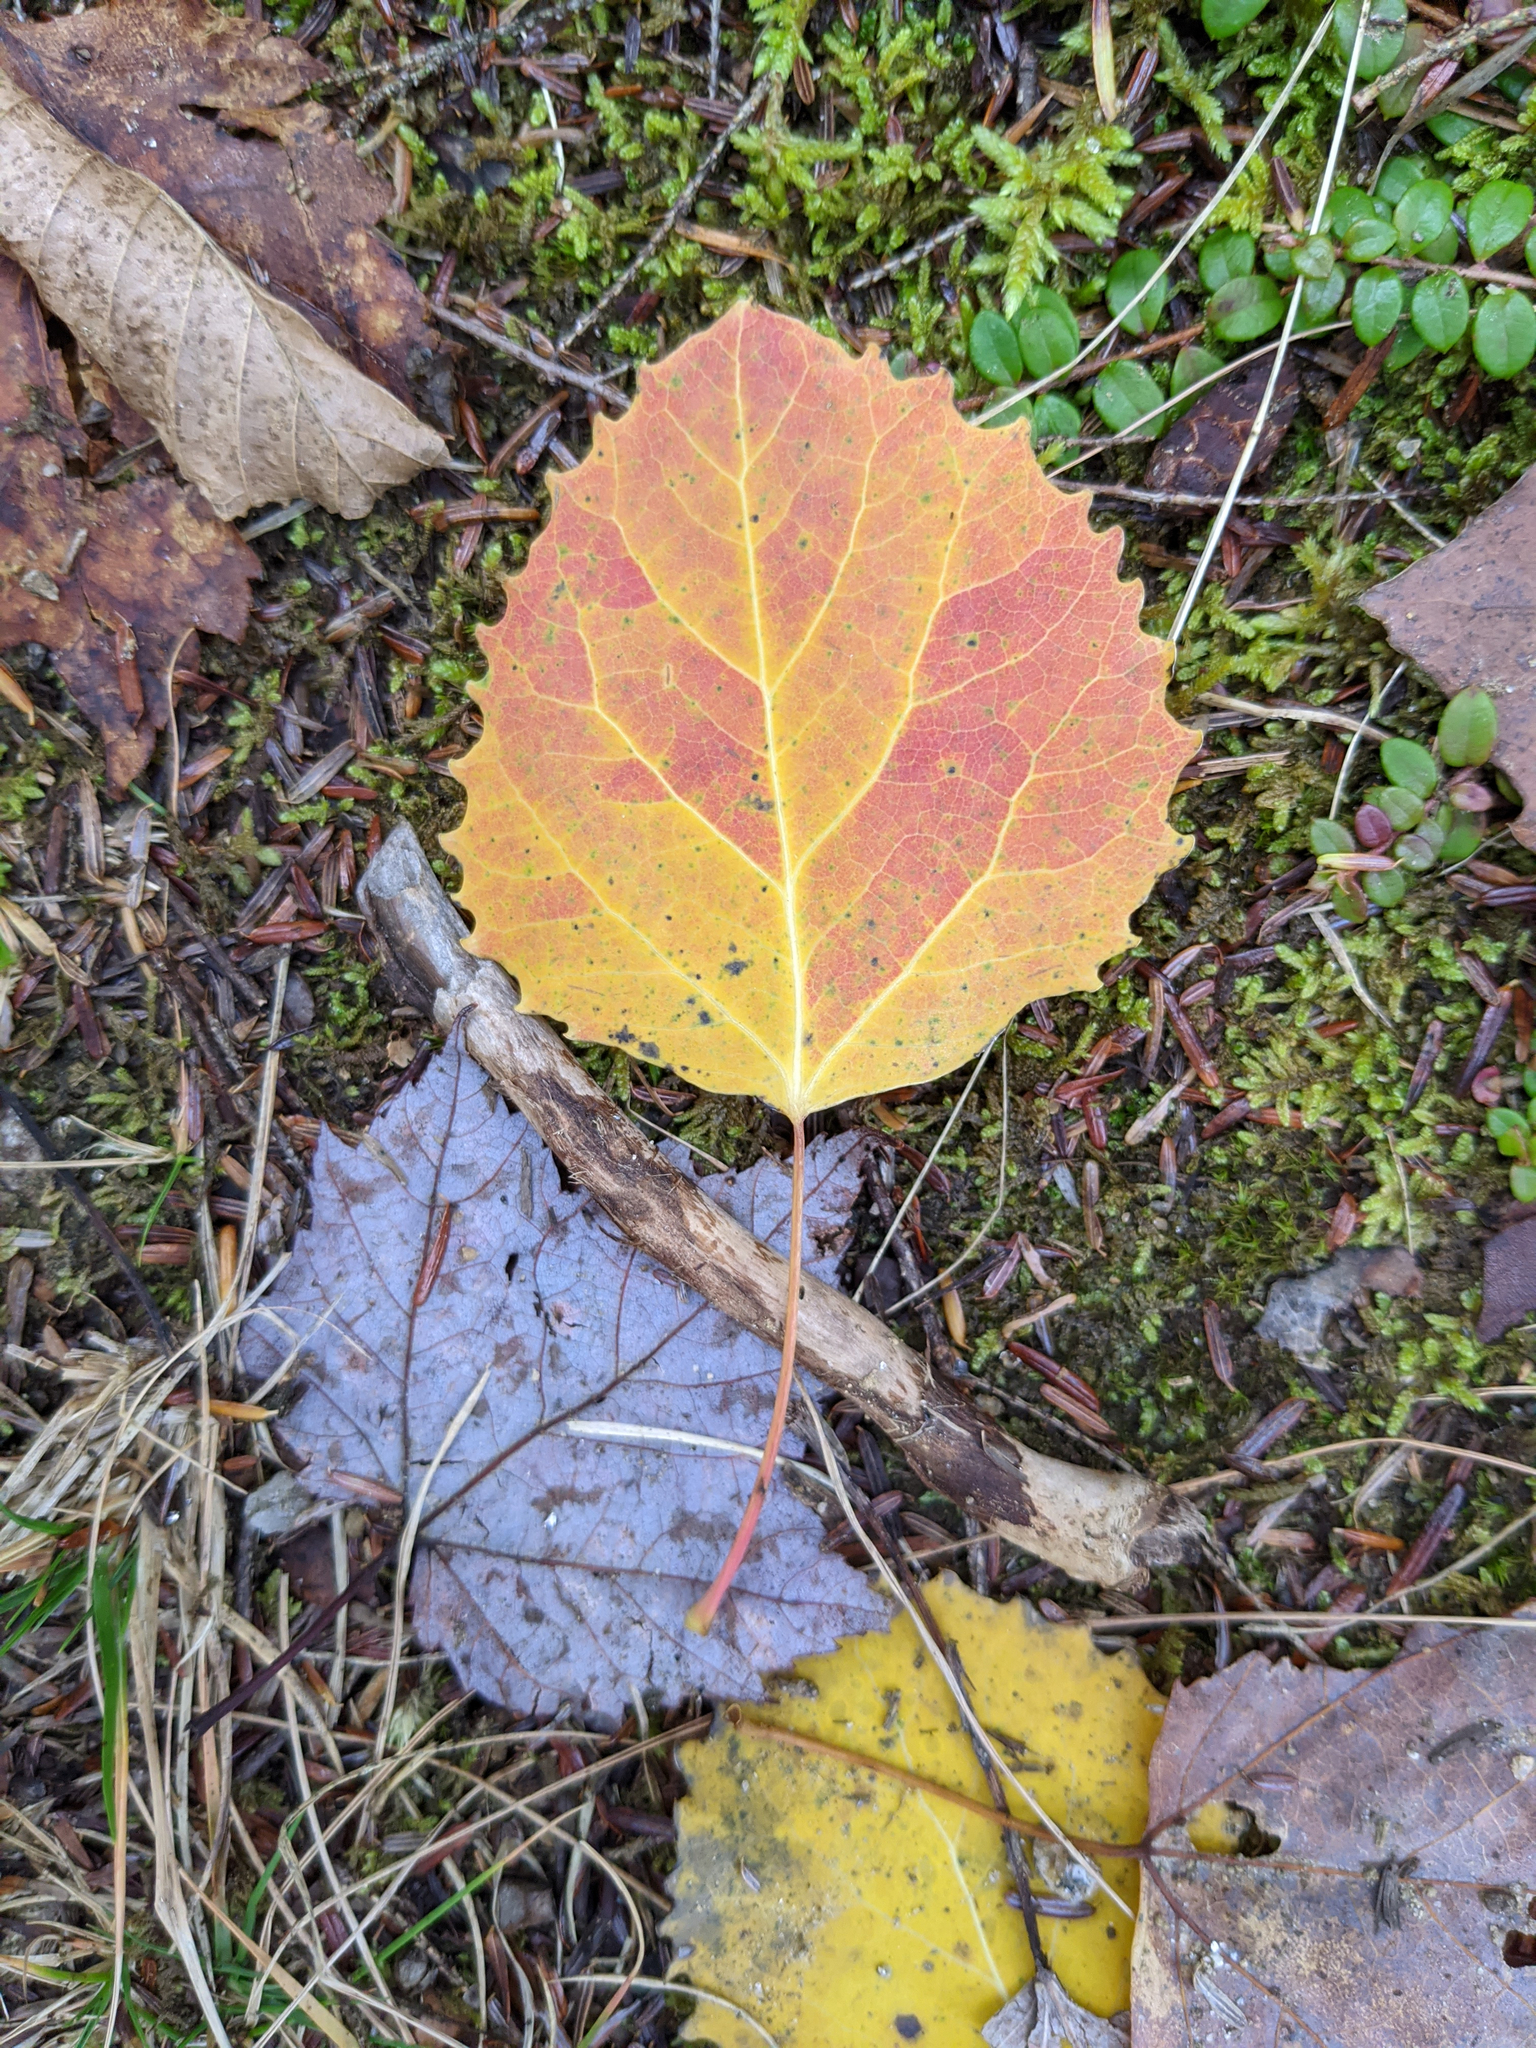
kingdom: Plantae
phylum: Tracheophyta
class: Magnoliopsida
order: Malpighiales
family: Salicaceae
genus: Populus
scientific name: Populus grandidentata
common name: Bigtooth aspen
